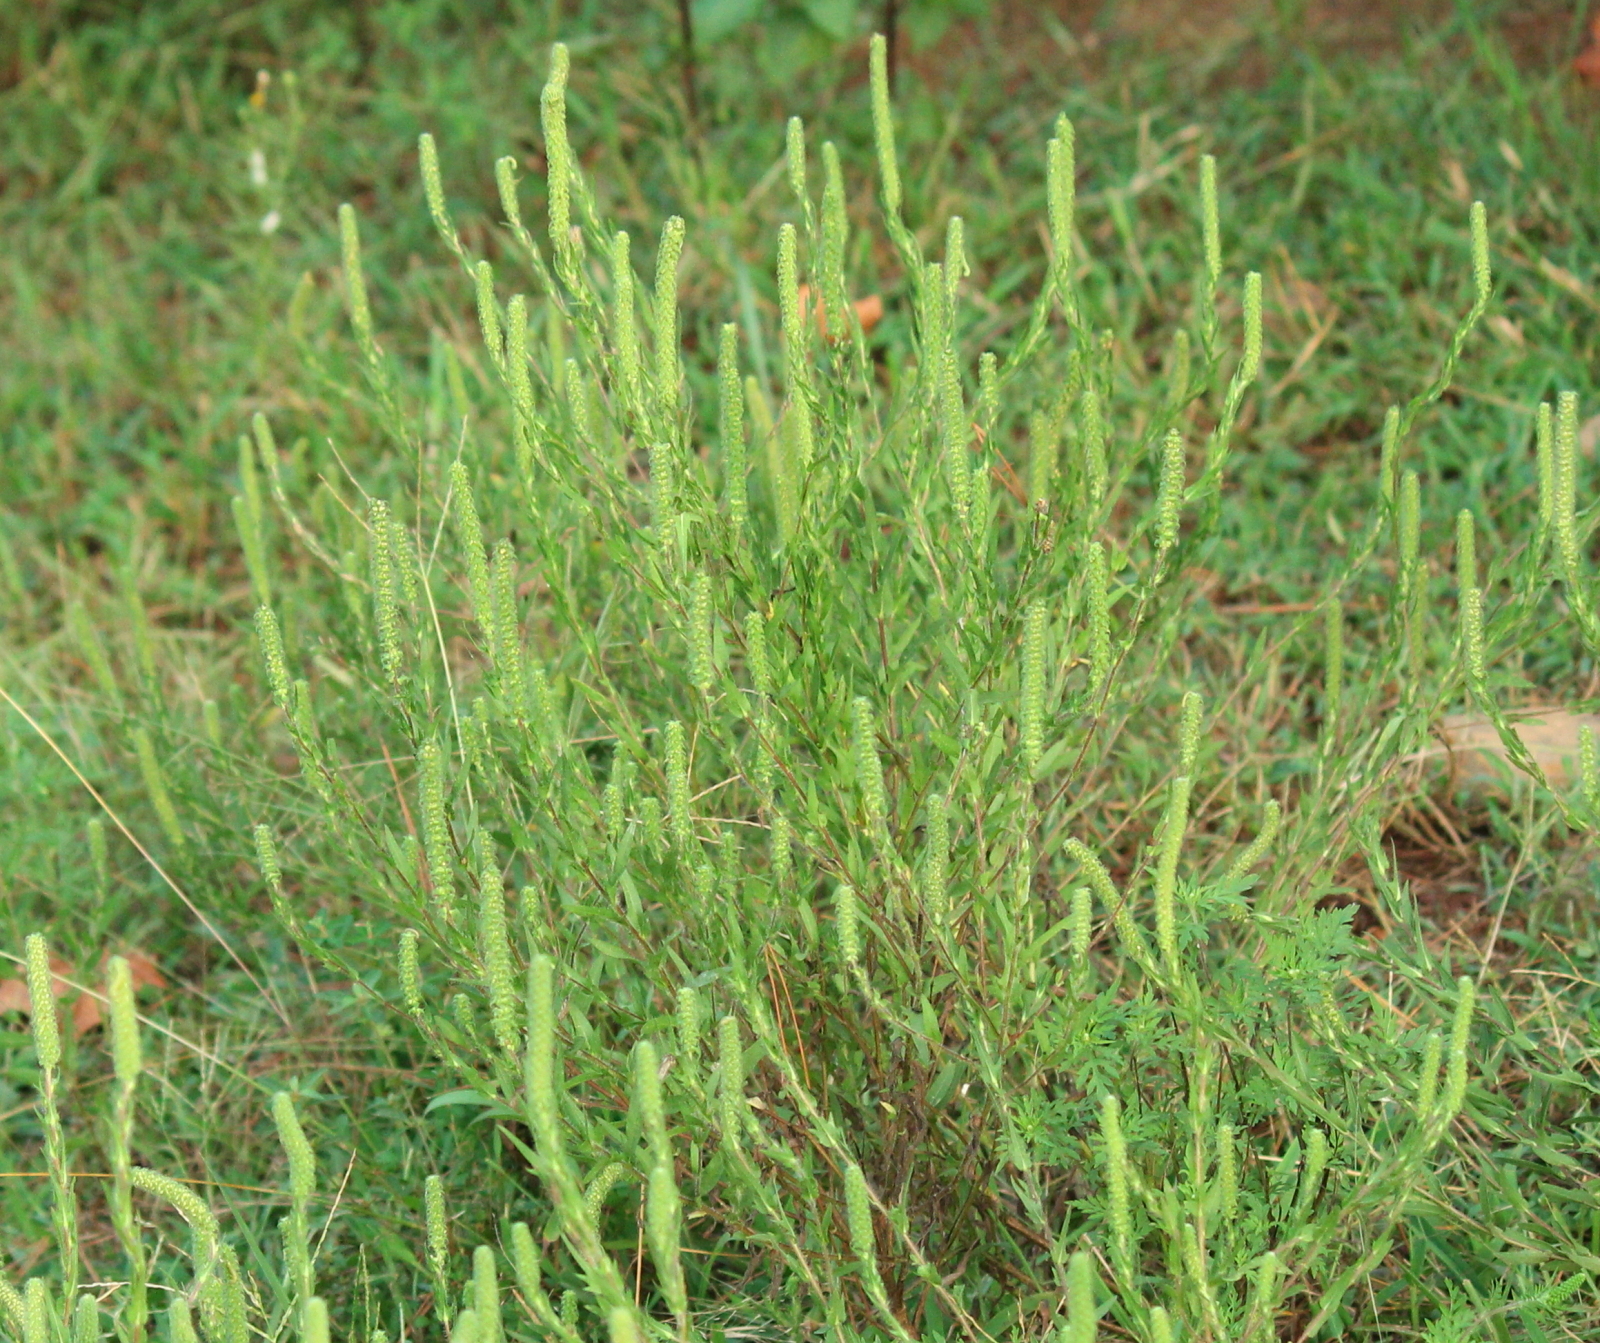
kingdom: Plantae
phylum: Tracheophyta
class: Magnoliopsida
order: Asterales
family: Asteraceae
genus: Ambrosia
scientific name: Ambrosia bidentata
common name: Southern ragweed
